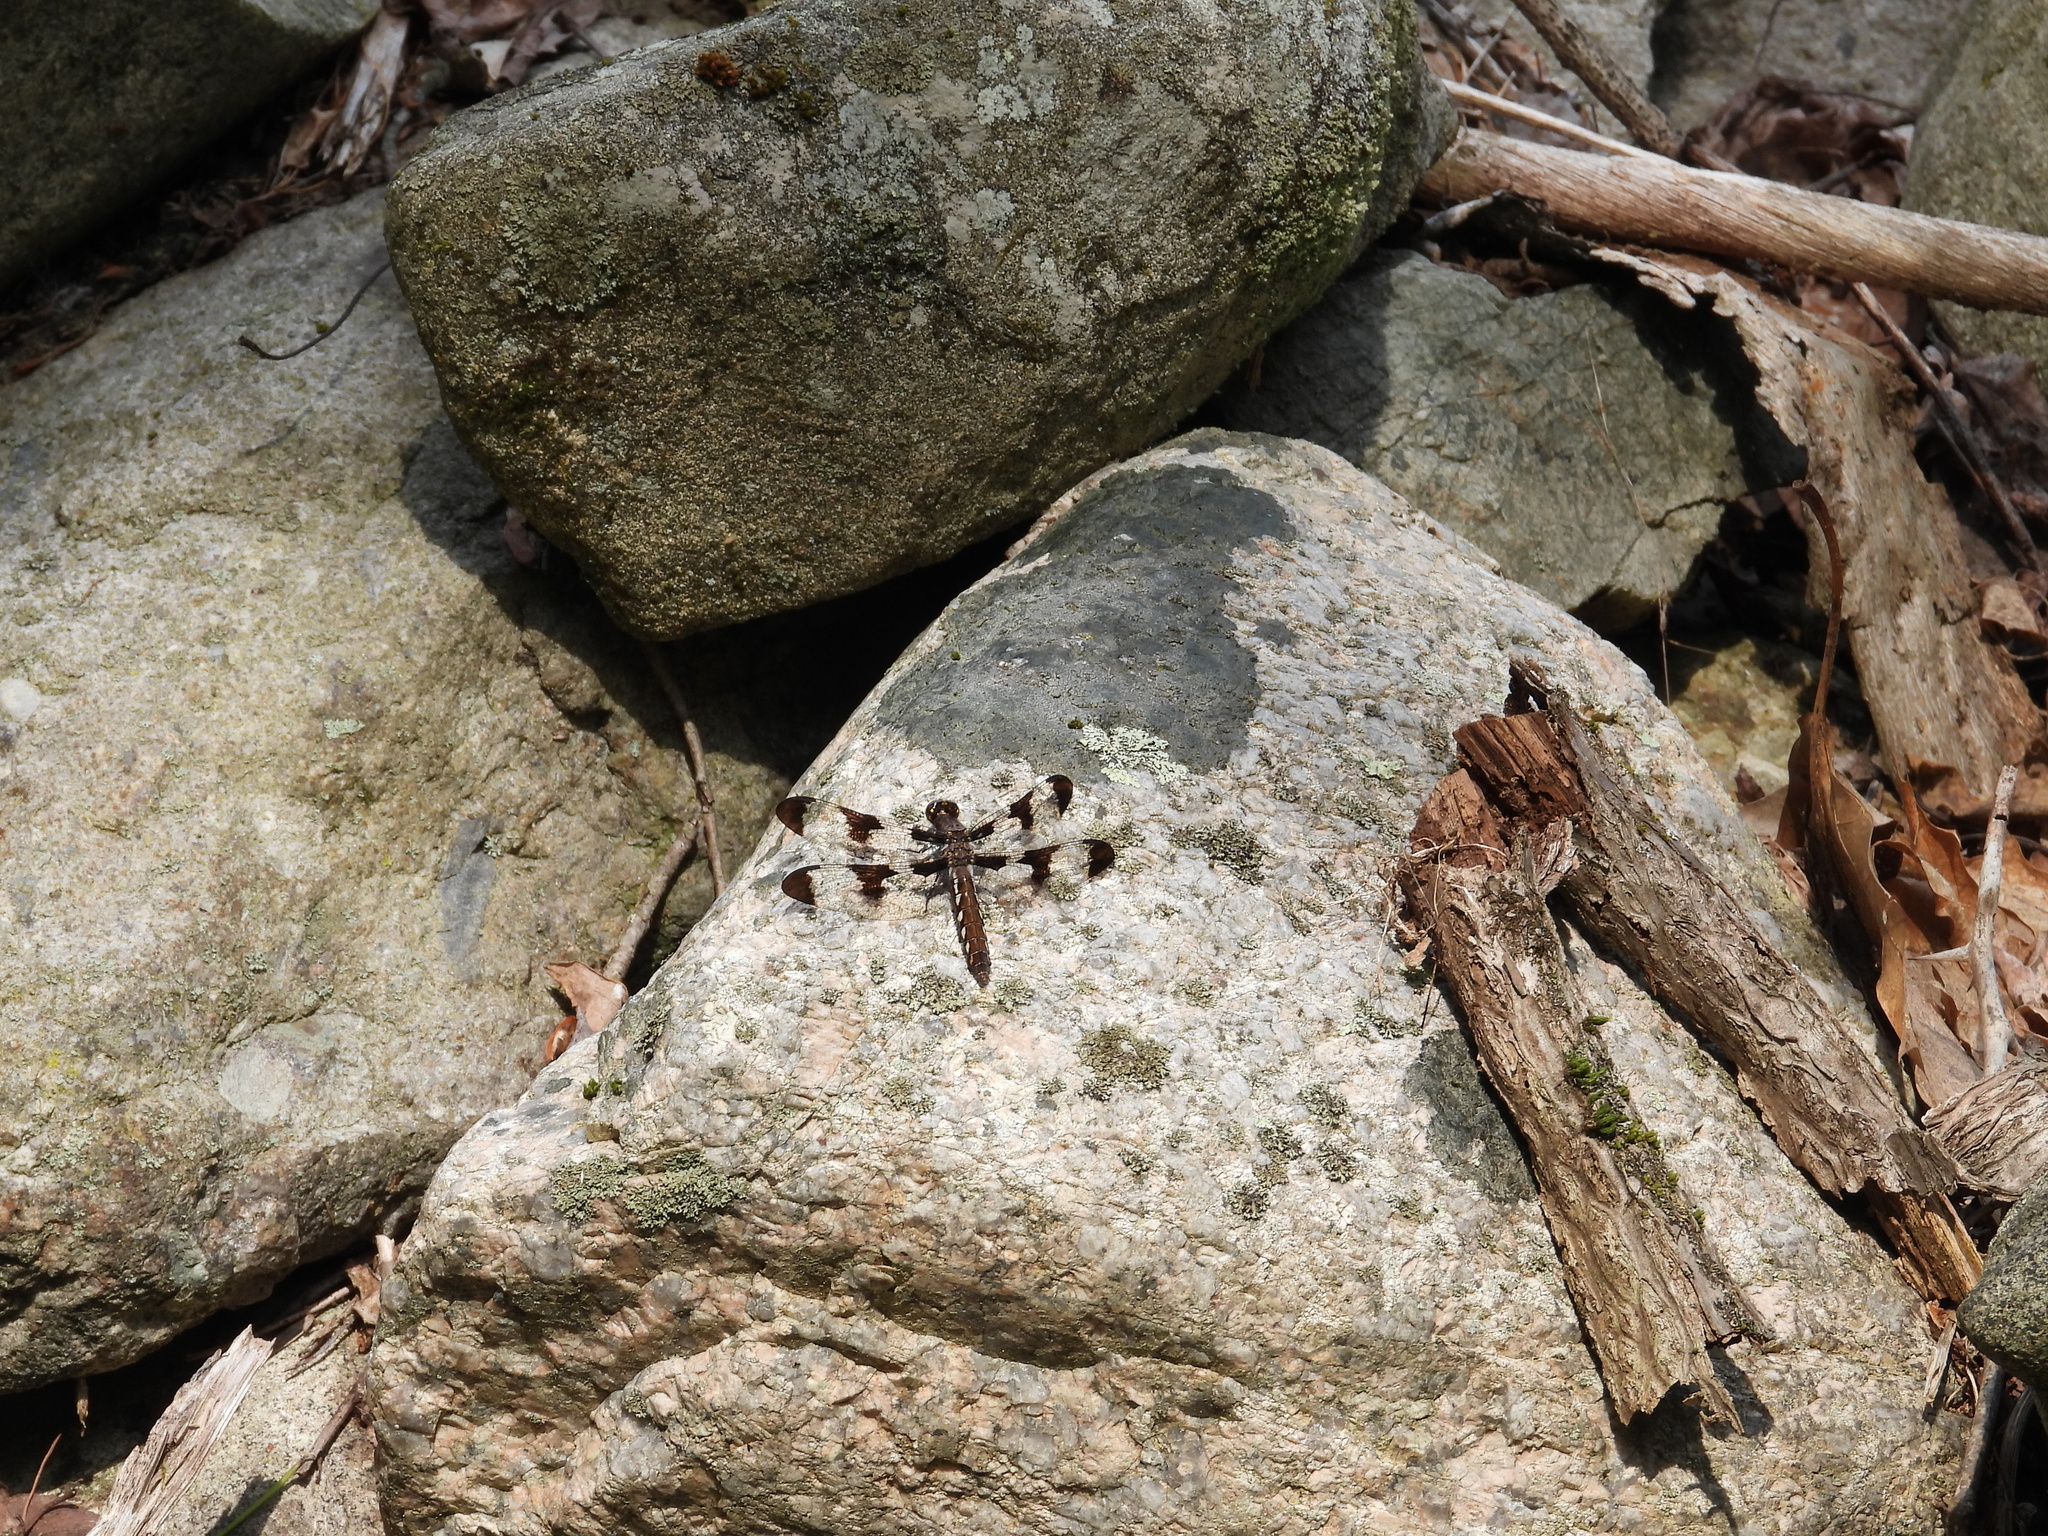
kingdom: Animalia
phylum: Arthropoda
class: Insecta
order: Odonata
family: Libellulidae
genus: Plathemis
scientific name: Plathemis lydia
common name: Common whitetail
